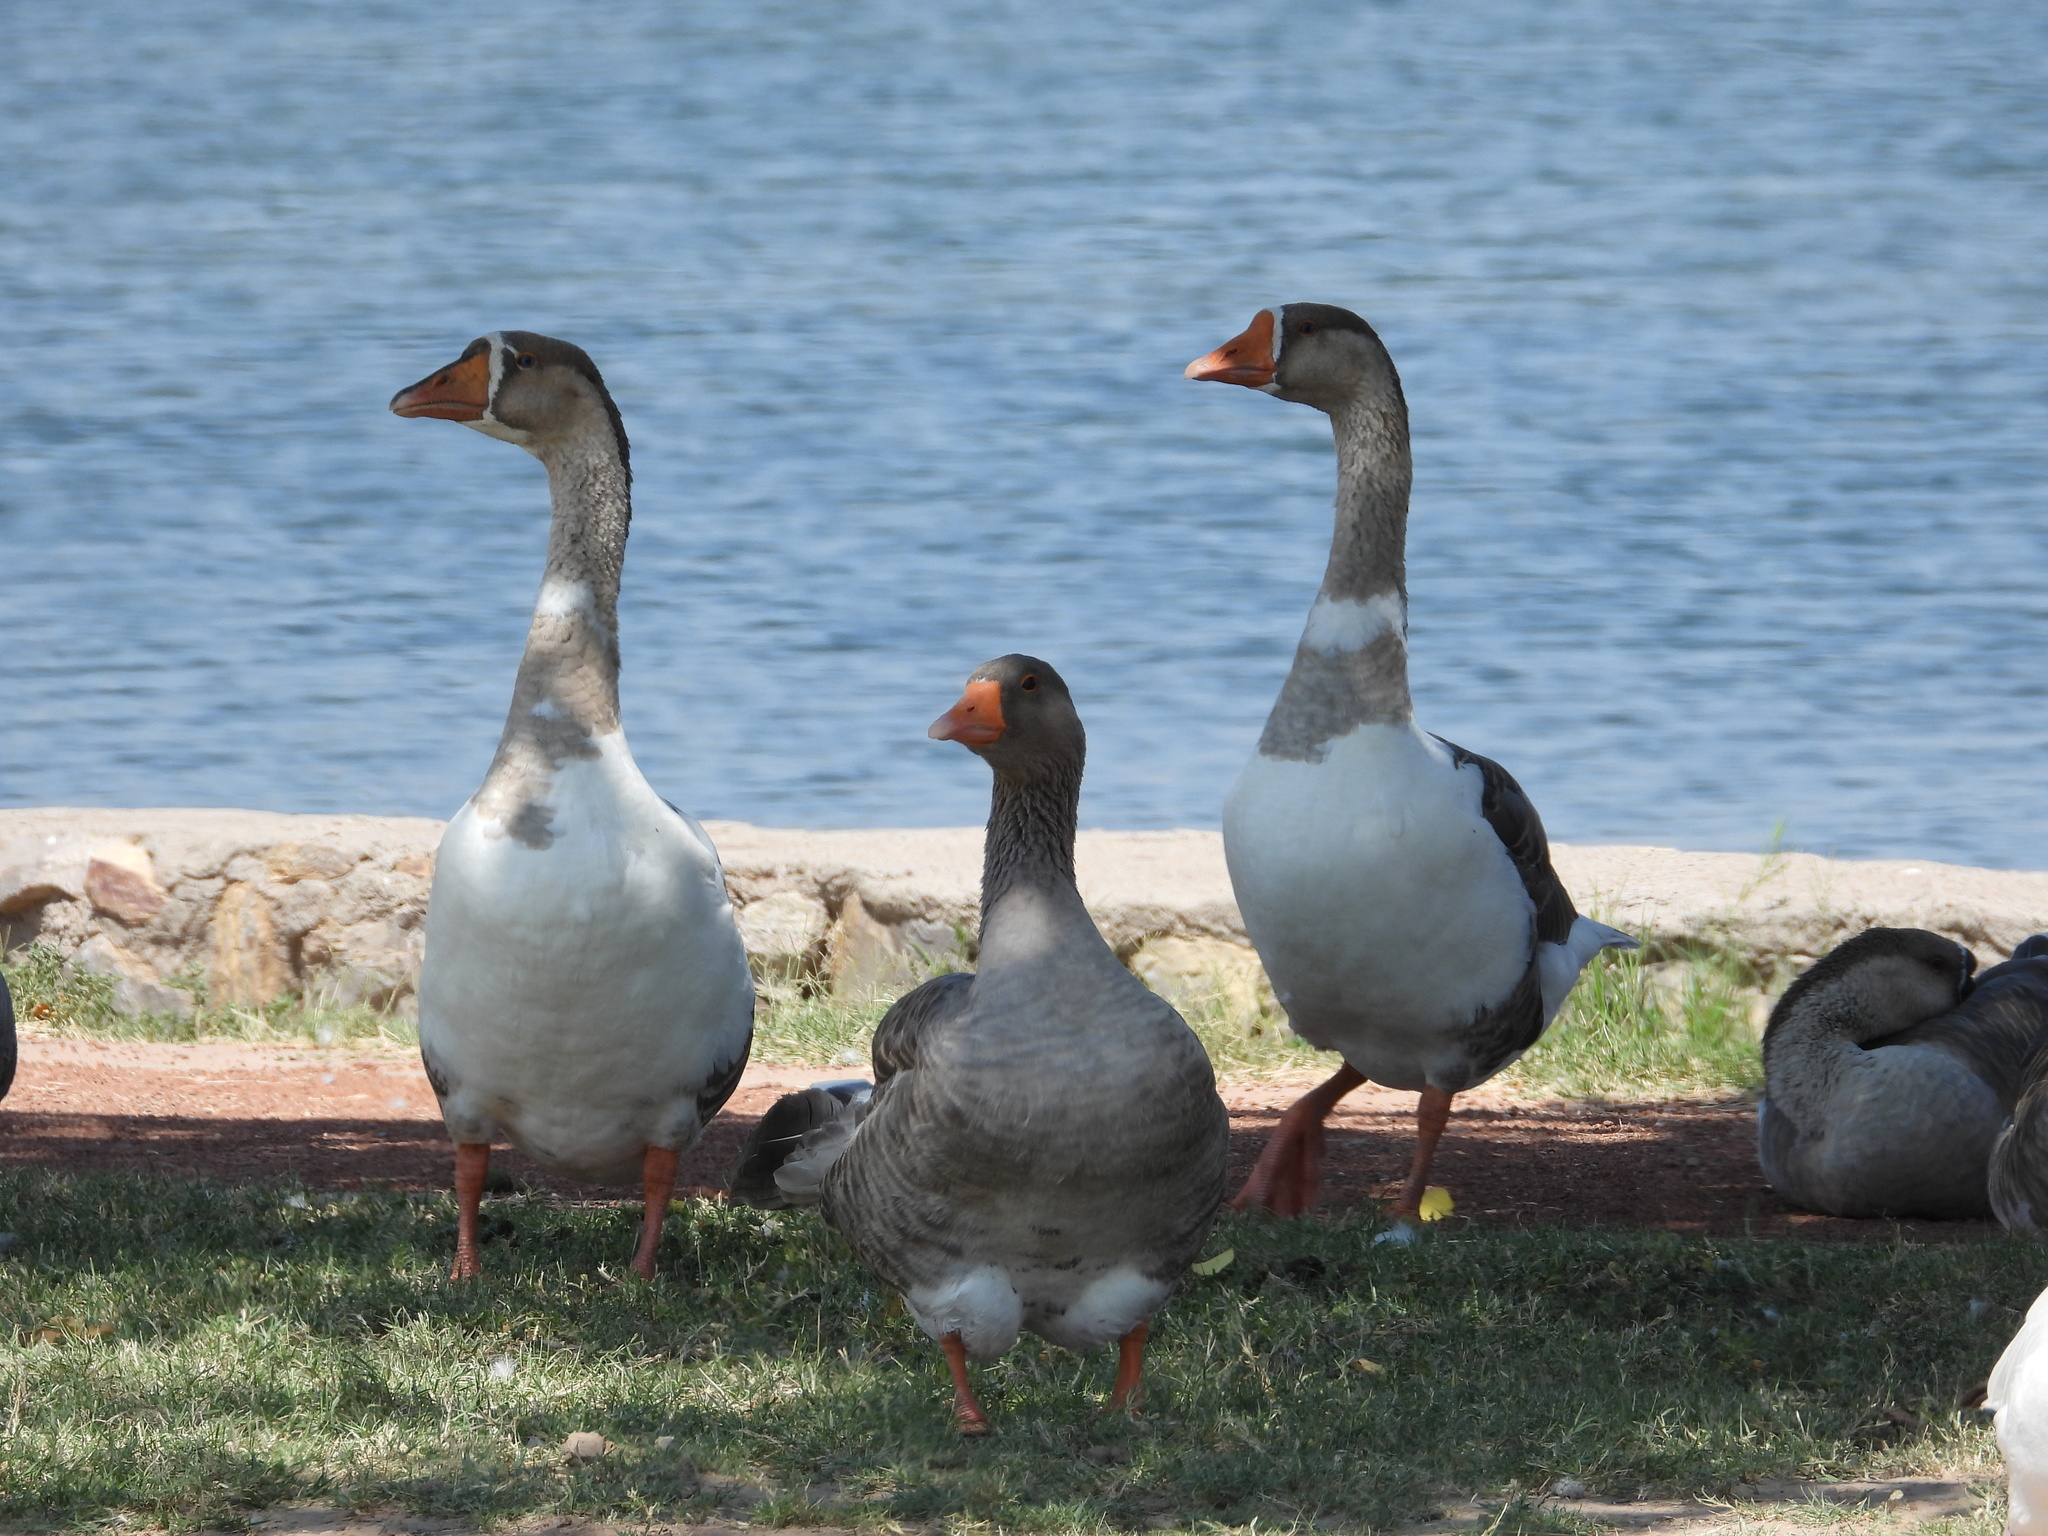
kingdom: Animalia
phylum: Chordata
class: Aves
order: Anseriformes
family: Anatidae
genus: Anser
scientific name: Anser
